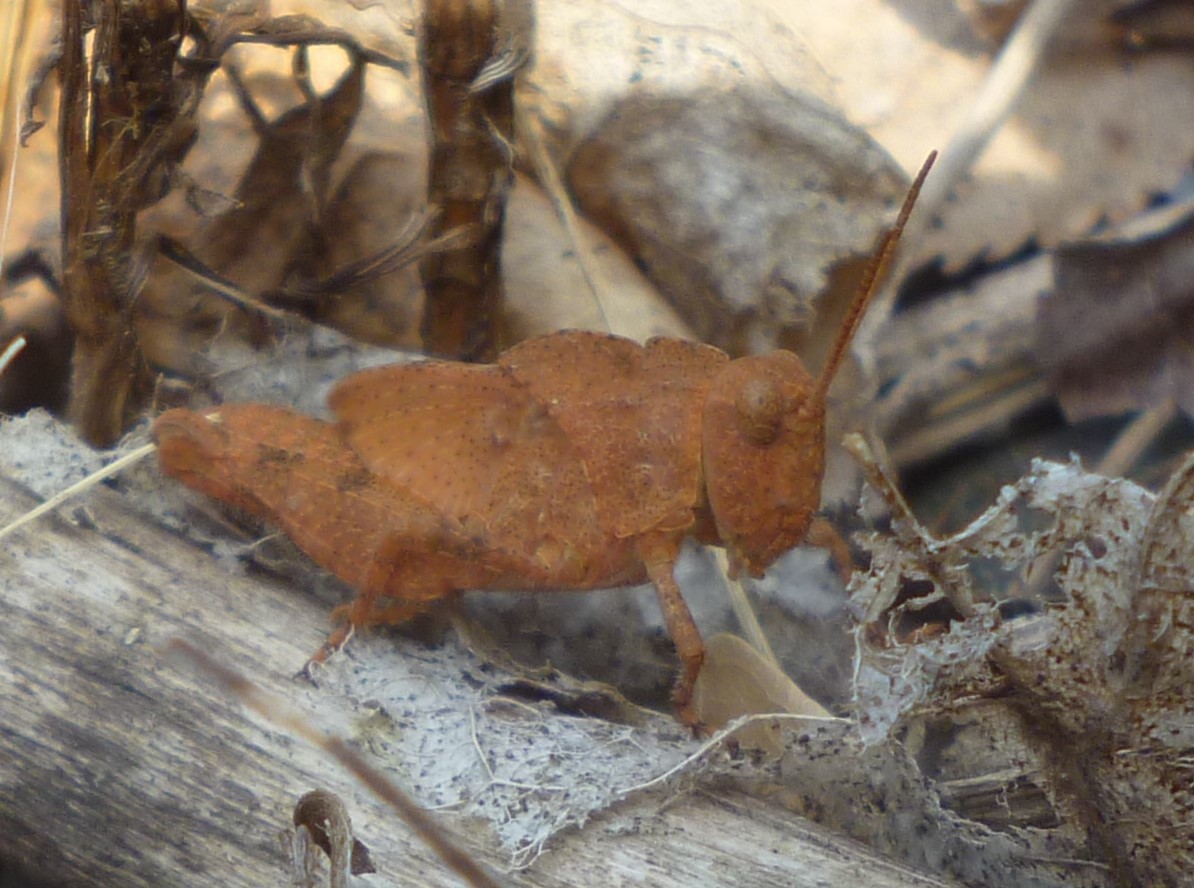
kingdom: Animalia
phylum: Arthropoda
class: Insecta
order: Orthoptera
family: Acrididae
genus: Dissosteira
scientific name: Dissosteira carolina
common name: Carolina grasshopper
